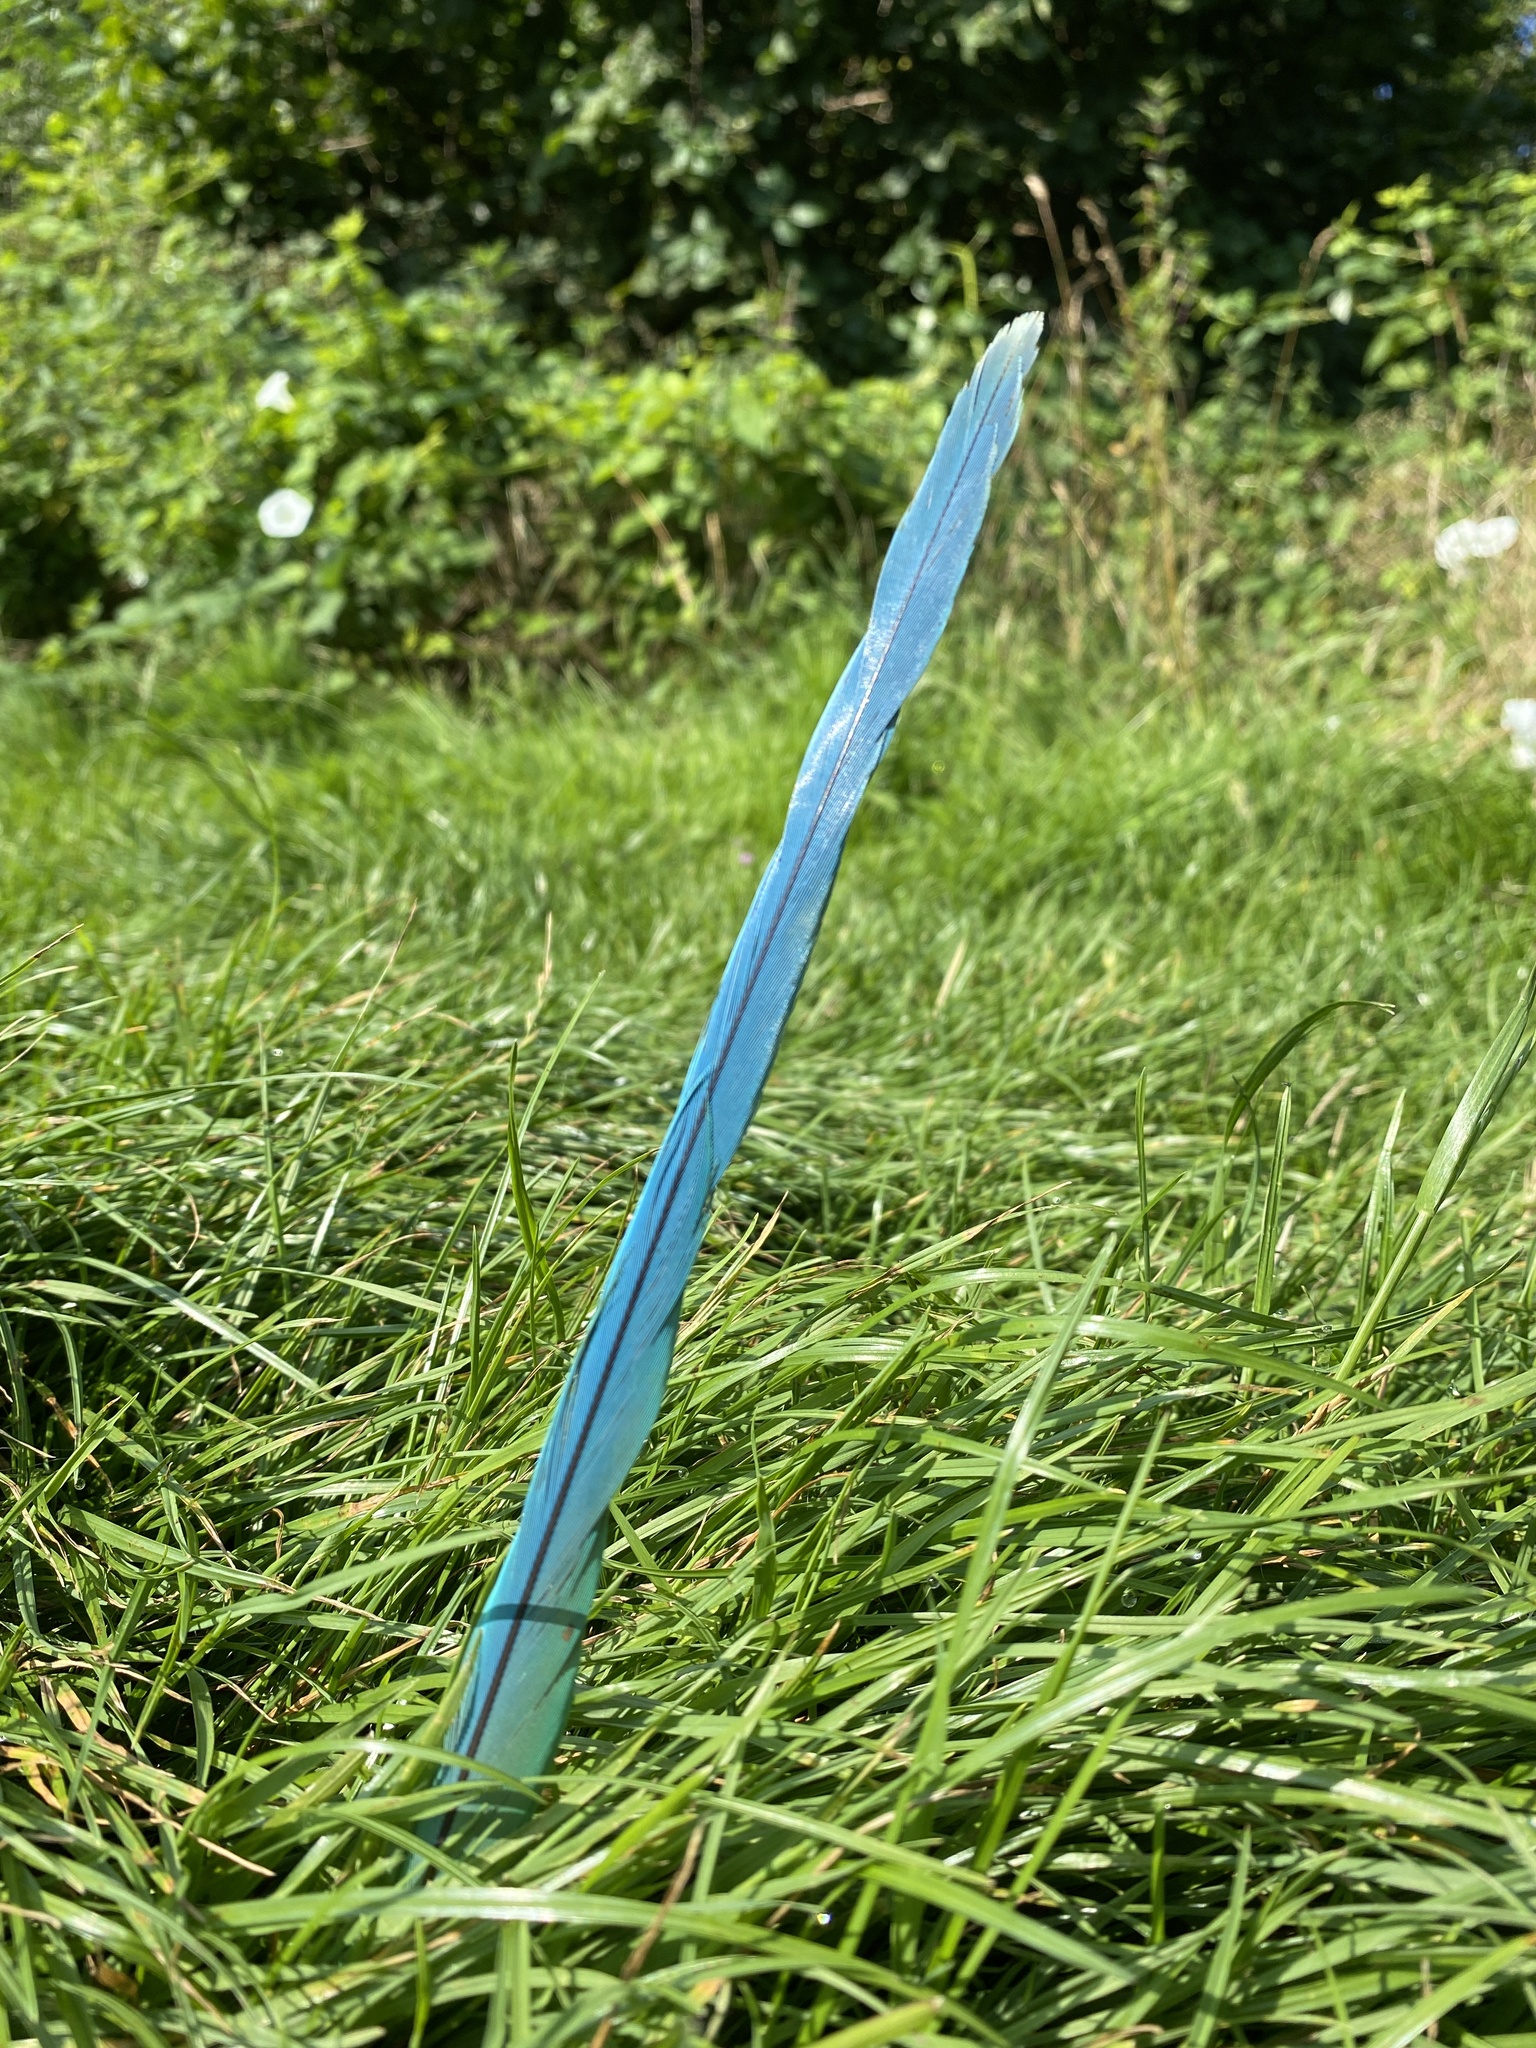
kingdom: Animalia
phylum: Chordata
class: Aves
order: Psittaciformes
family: Psittacidae
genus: Psittacula
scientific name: Psittacula krameri
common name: Rose-ringed parakeet
